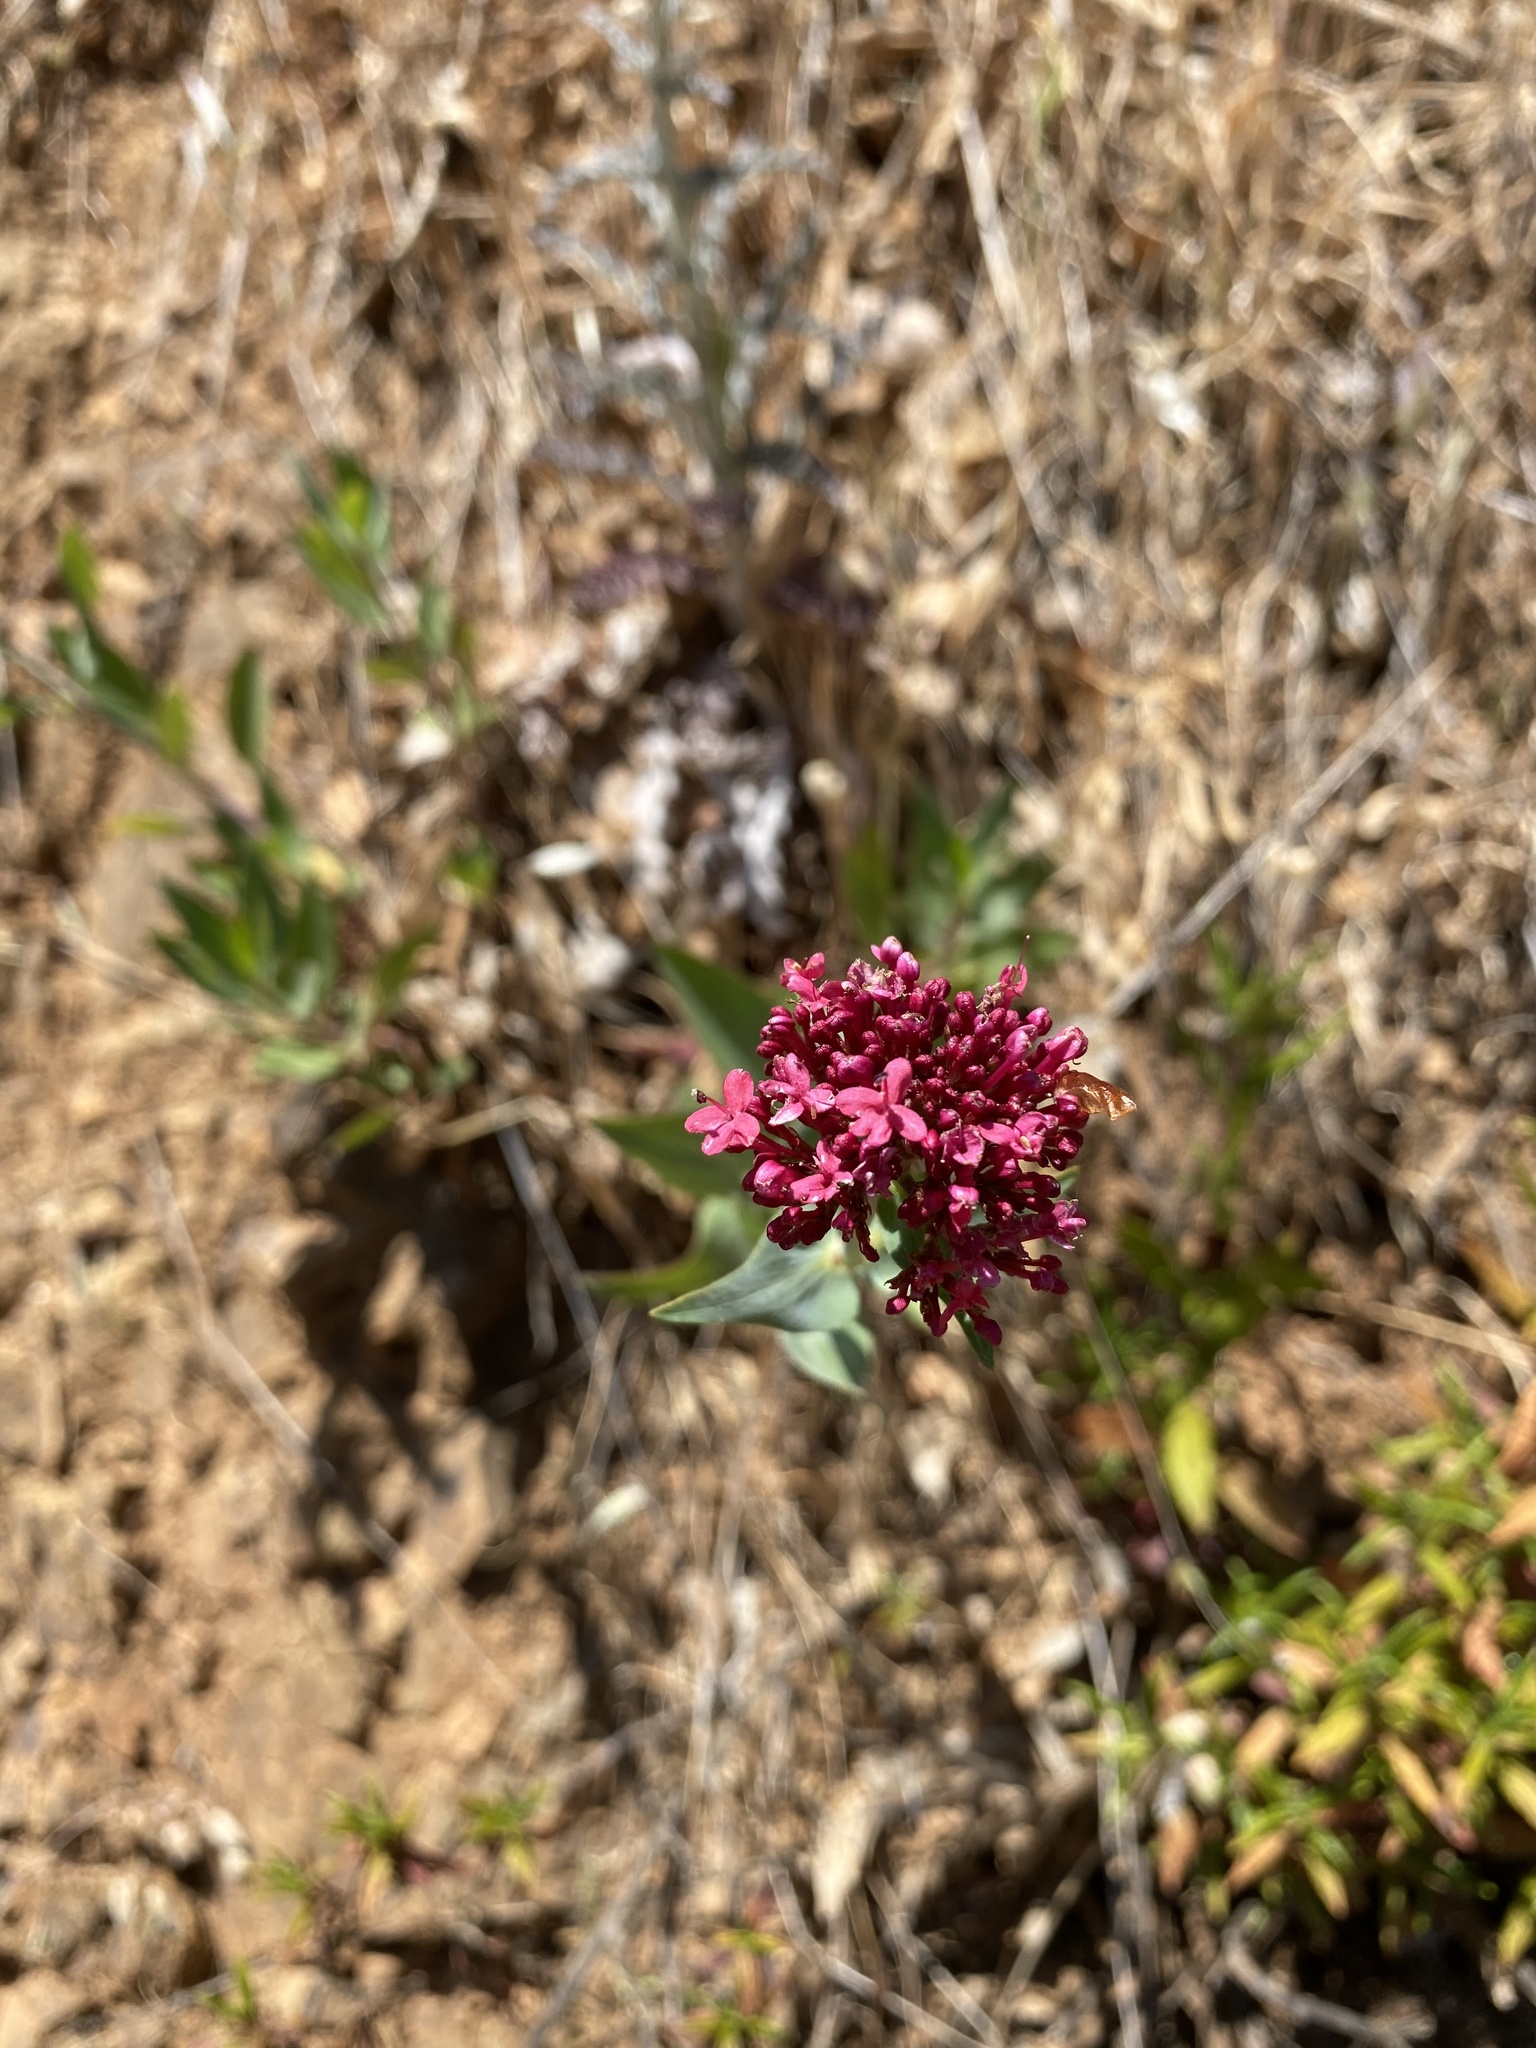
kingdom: Plantae
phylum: Tracheophyta
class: Magnoliopsida
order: Dipsacales
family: Caprifoliaceae
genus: Centranthus
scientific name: Centranthus ruber
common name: Red valerian
